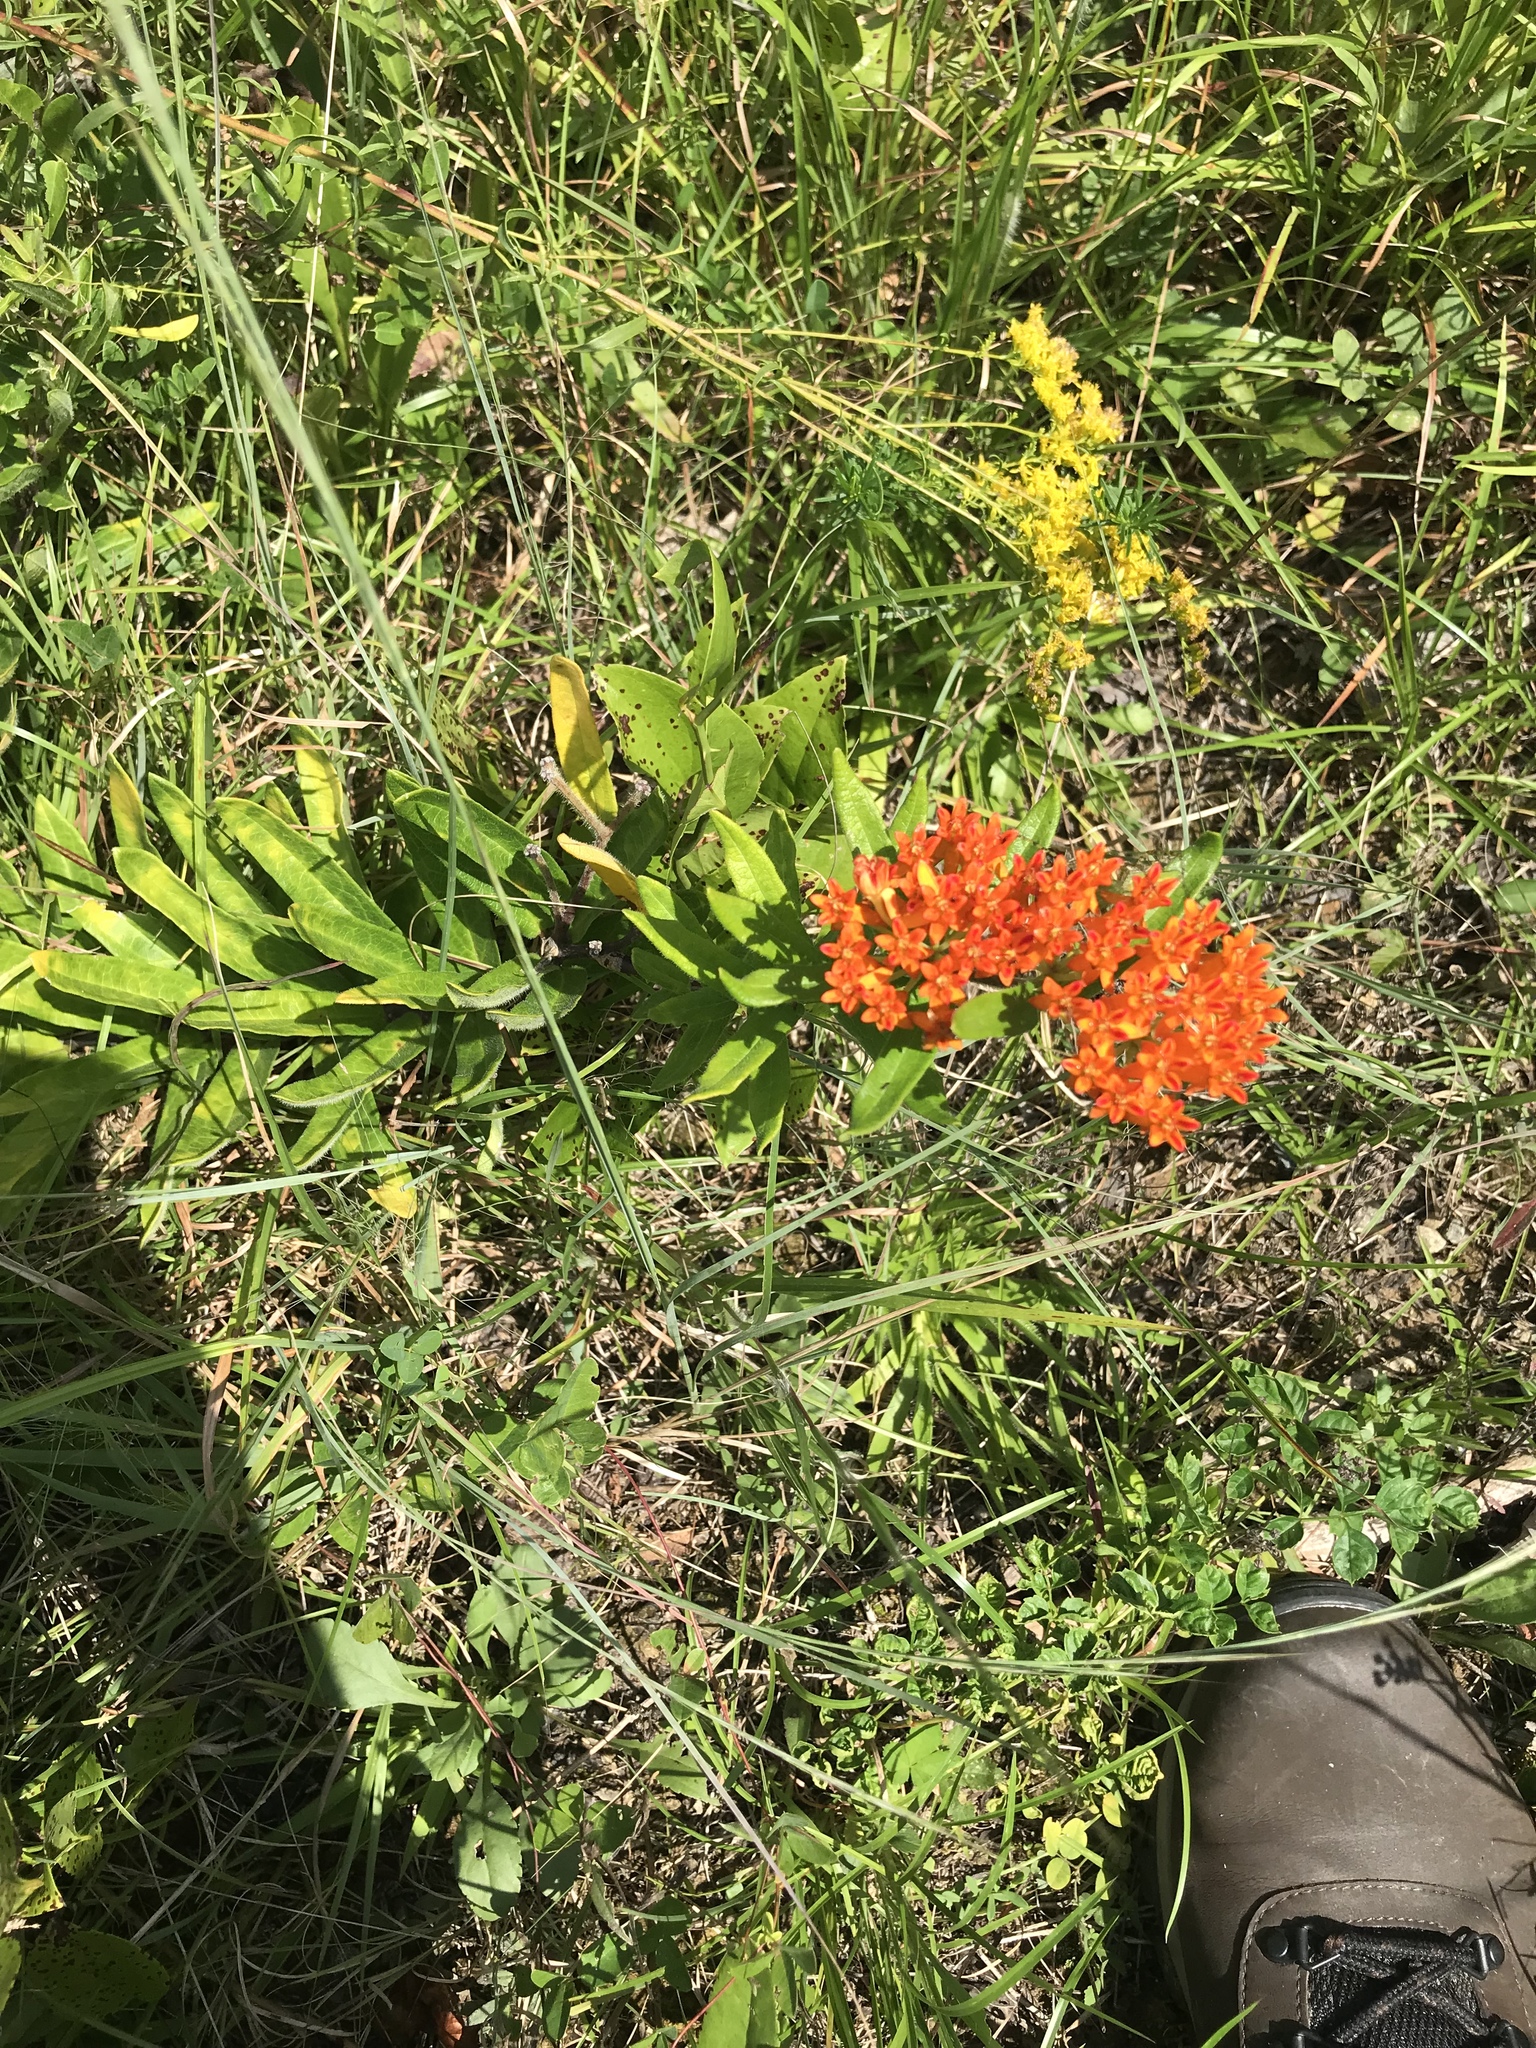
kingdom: Plantae
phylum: Tracheophyta
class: Magnoliopsida
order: Gentianales
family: Apocynaceae
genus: Asclepias
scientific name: Asclepias tuberosa
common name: Butterfly milkweed
